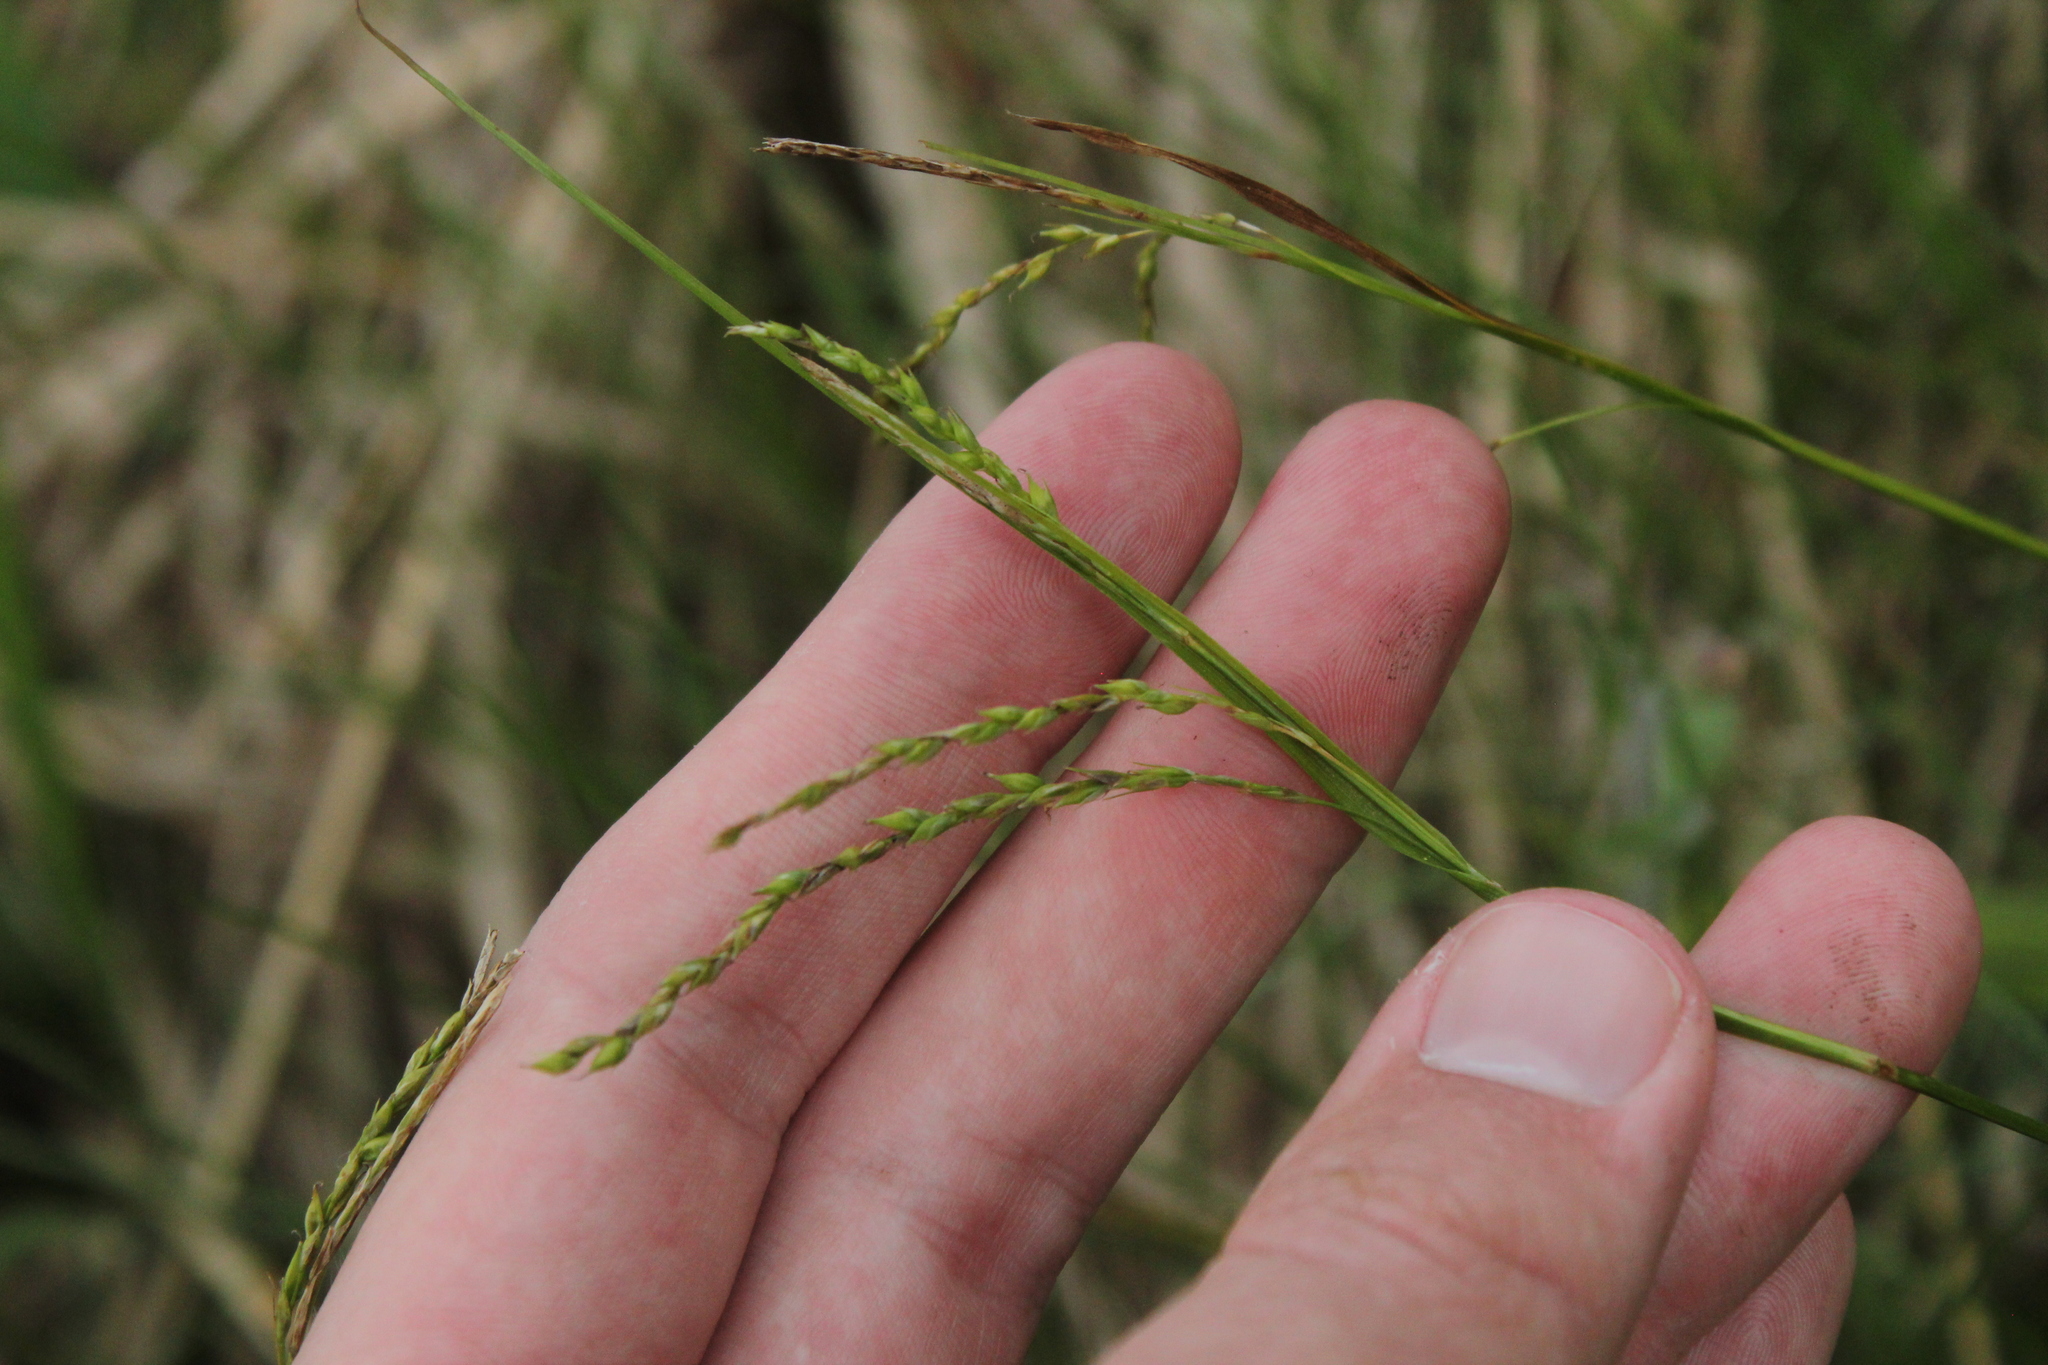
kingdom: Plantae
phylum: Tracheophyta
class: Liliopsida
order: Poales
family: Cyperaceae
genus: Carex
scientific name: Carex arctata
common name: Black sedge
